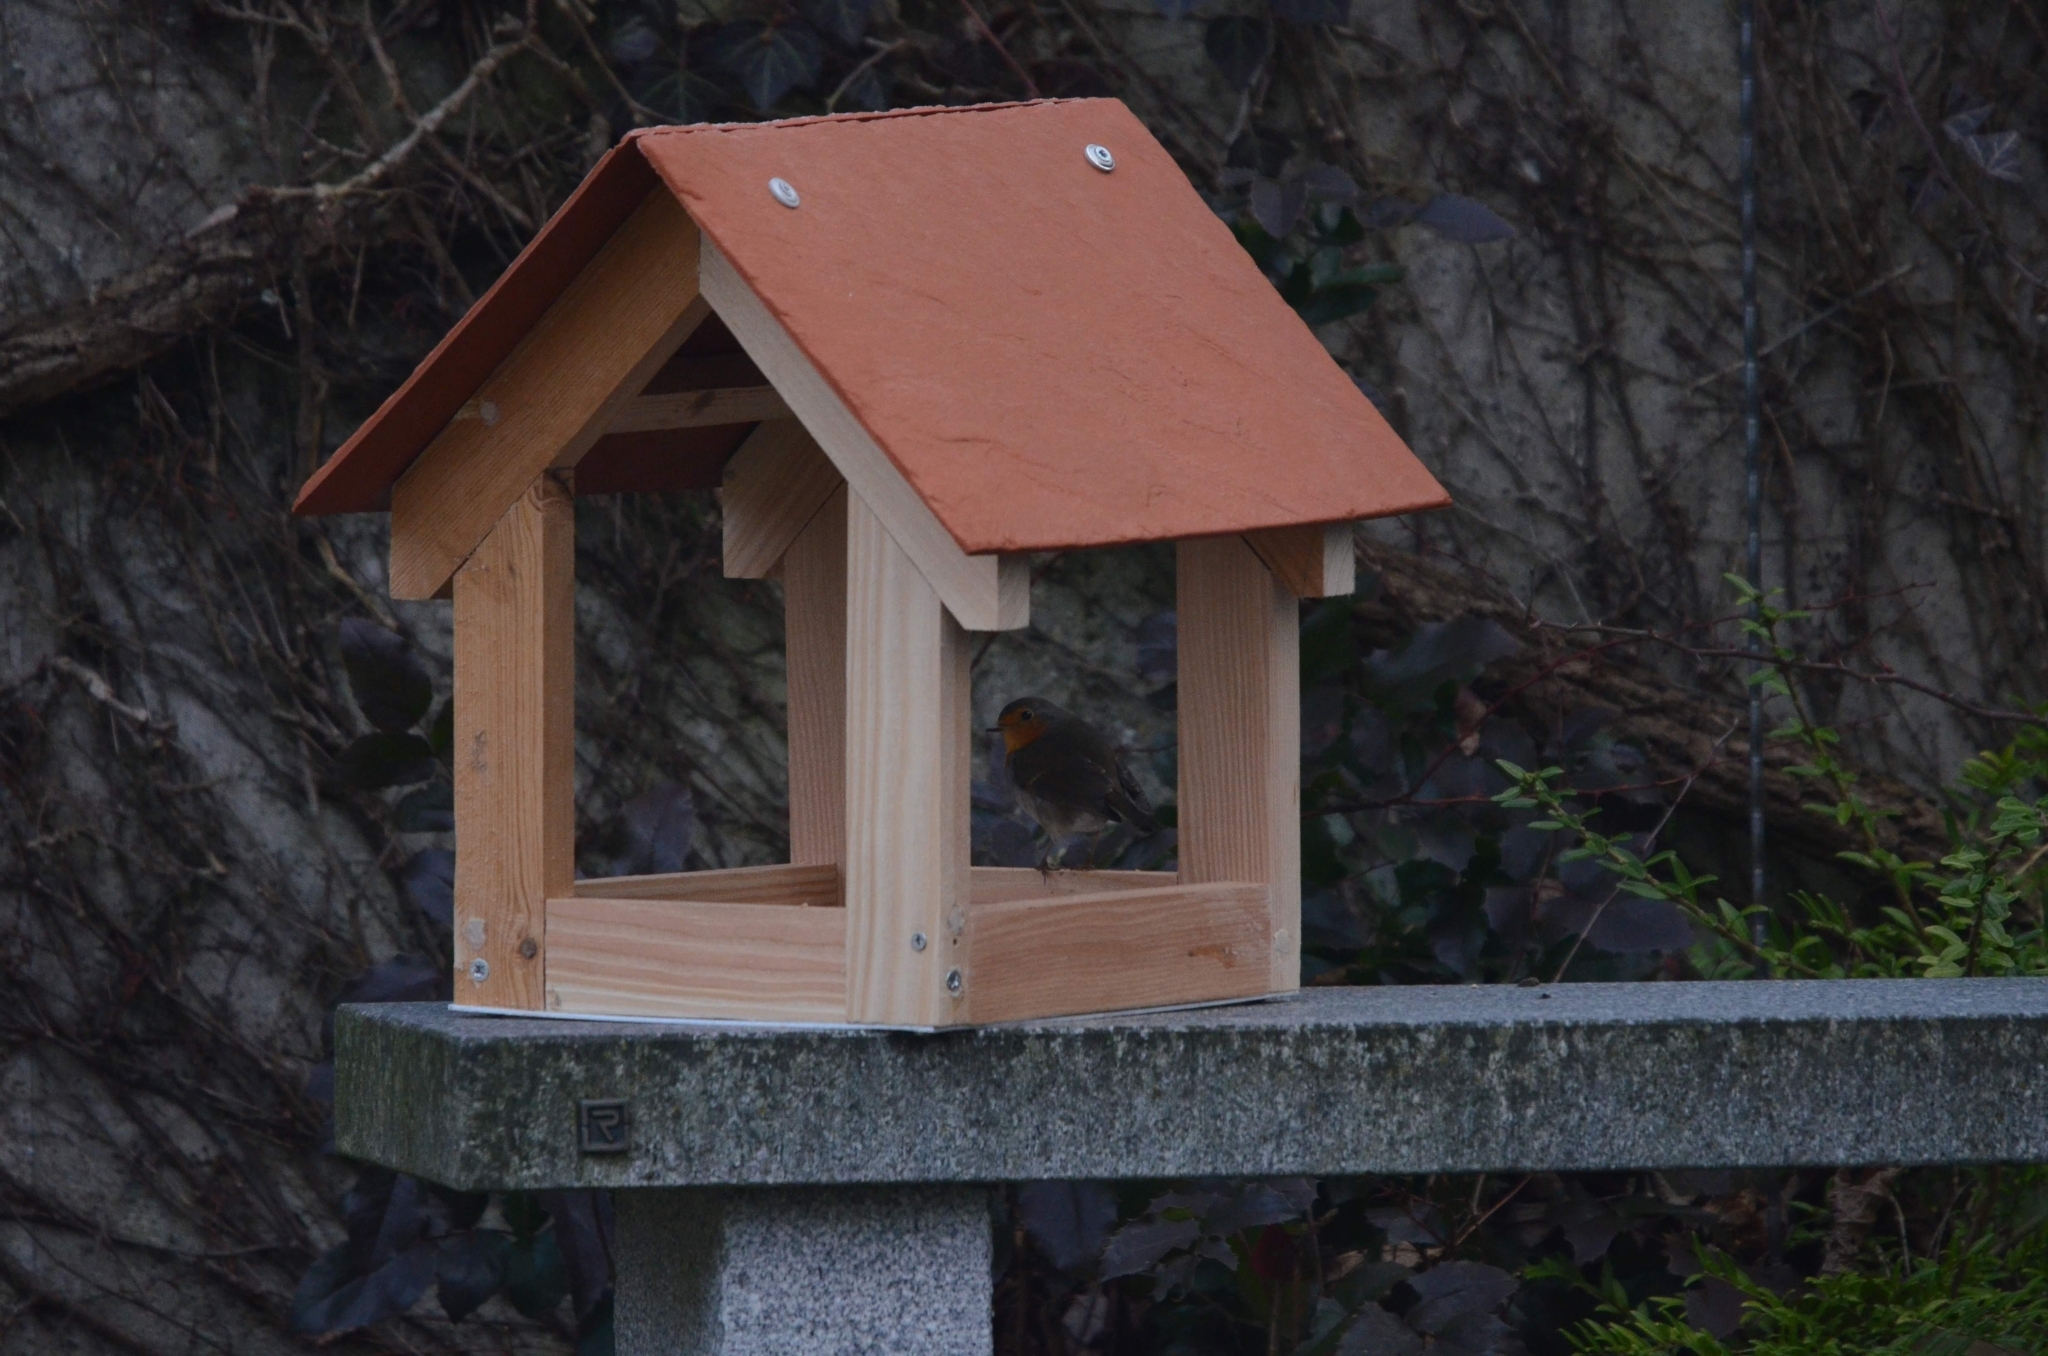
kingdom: Animalia
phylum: Chordata
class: Aves
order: Passeriformes
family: Muscicapidae
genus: Erithacus
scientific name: Erithacus rubecula
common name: European robin
